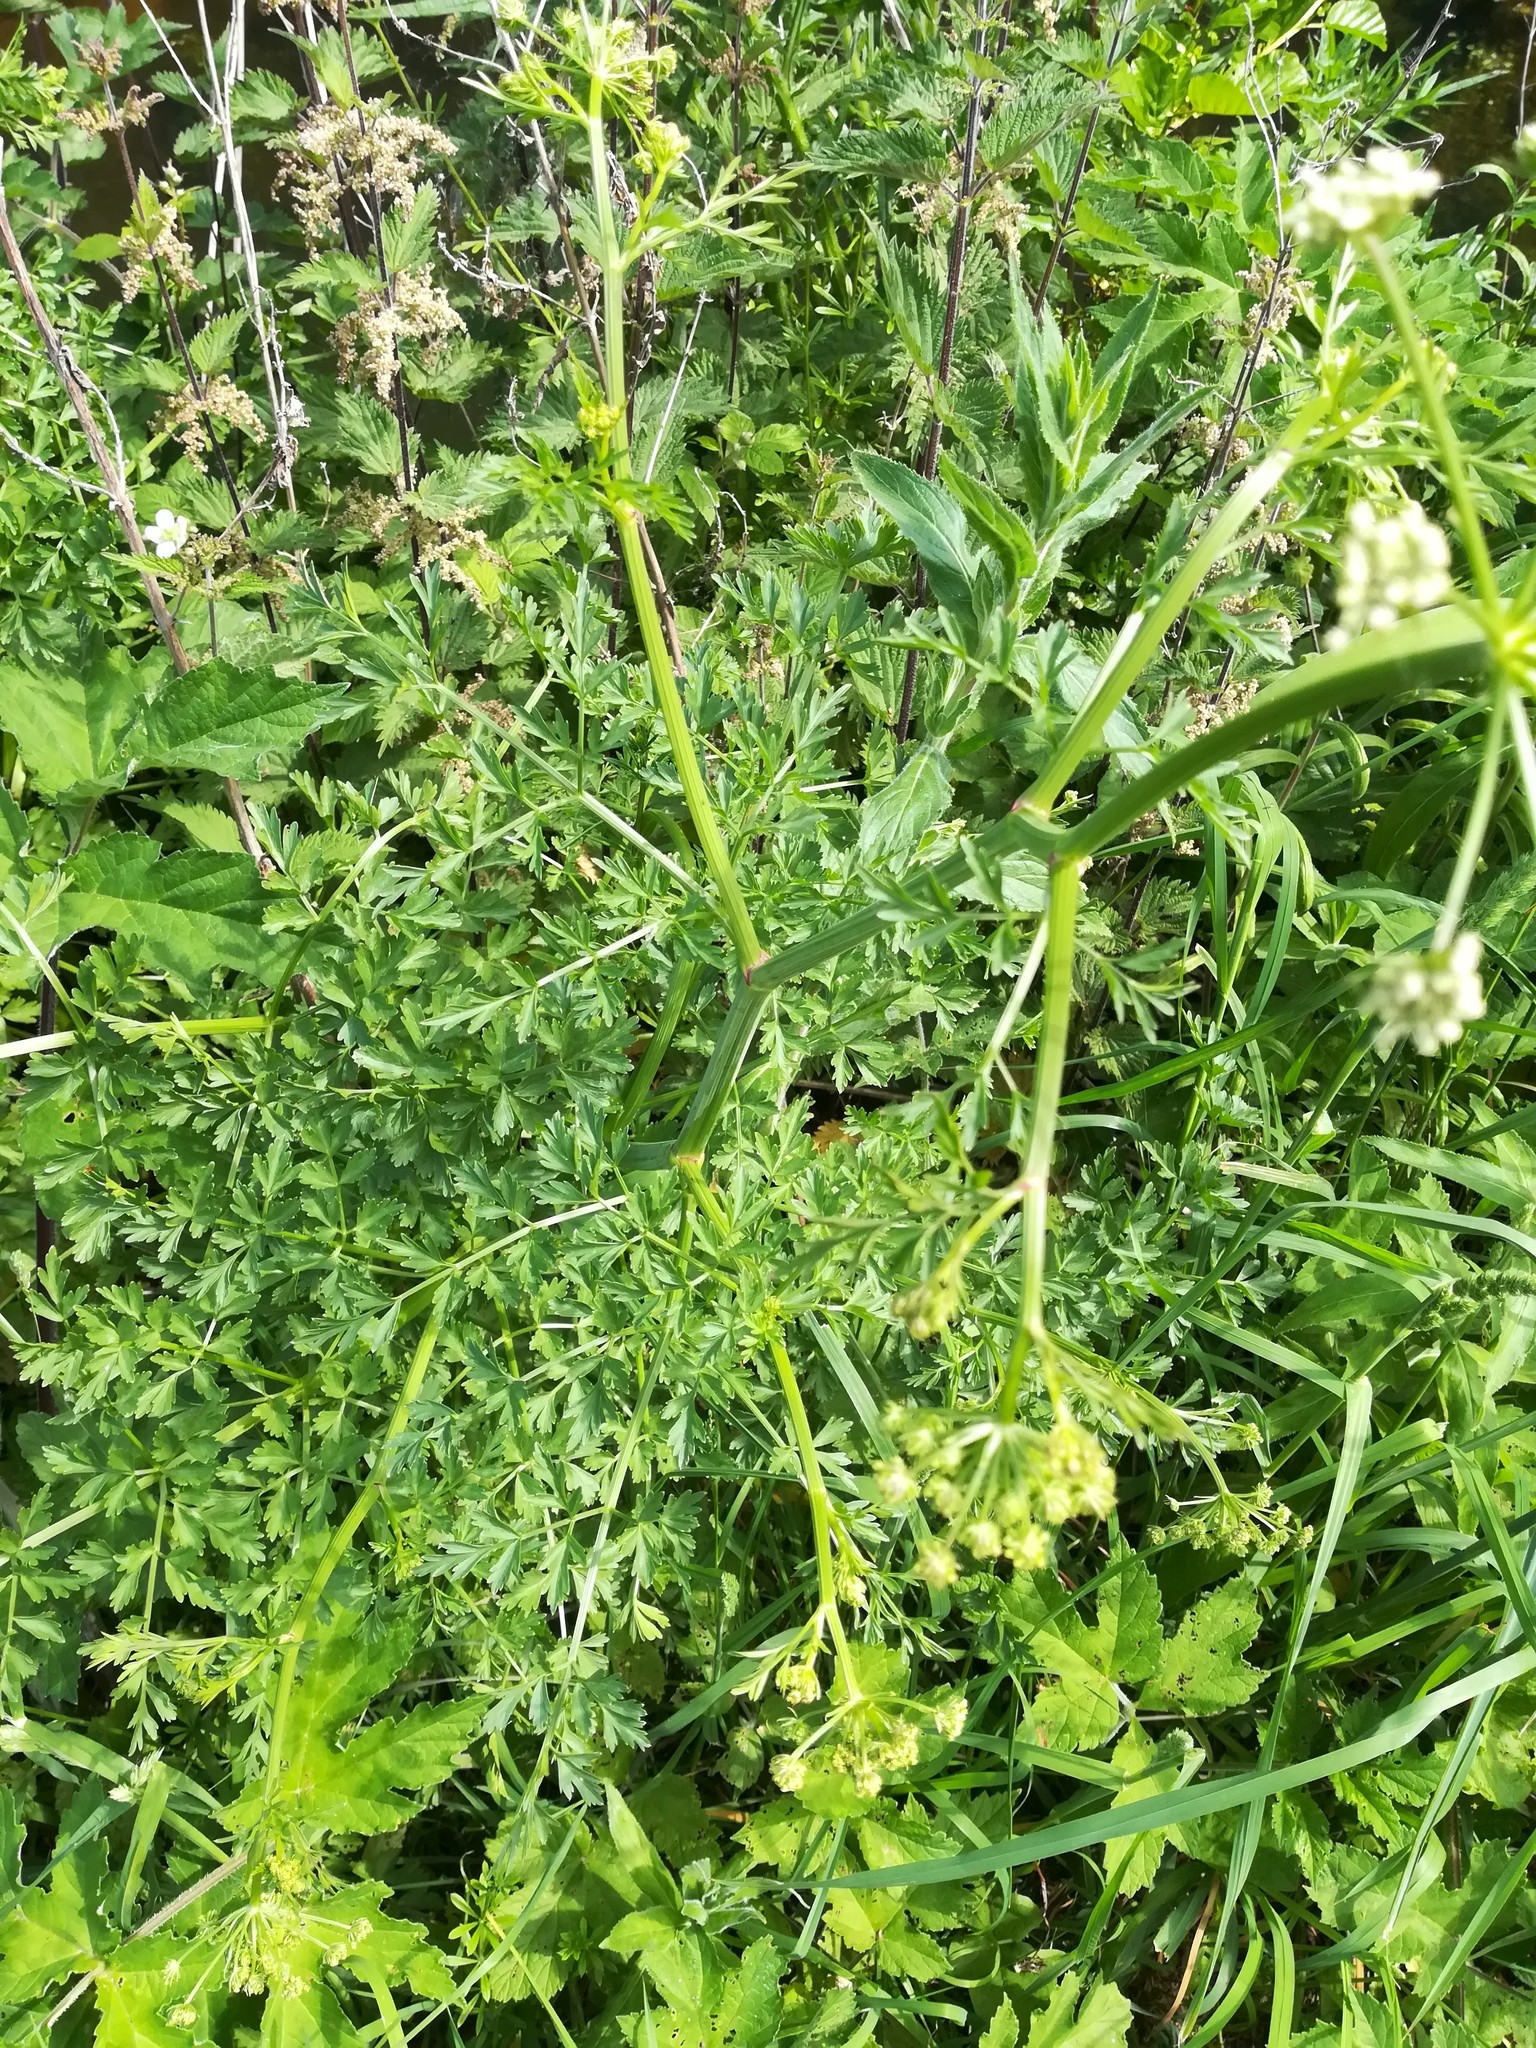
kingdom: Plantae
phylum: Tracheophyta
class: Magnoliopsida
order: Apiales
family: Apiaceae
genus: Oenanthe
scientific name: Oenanthe crocata
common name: Hemlock water-dropwort
